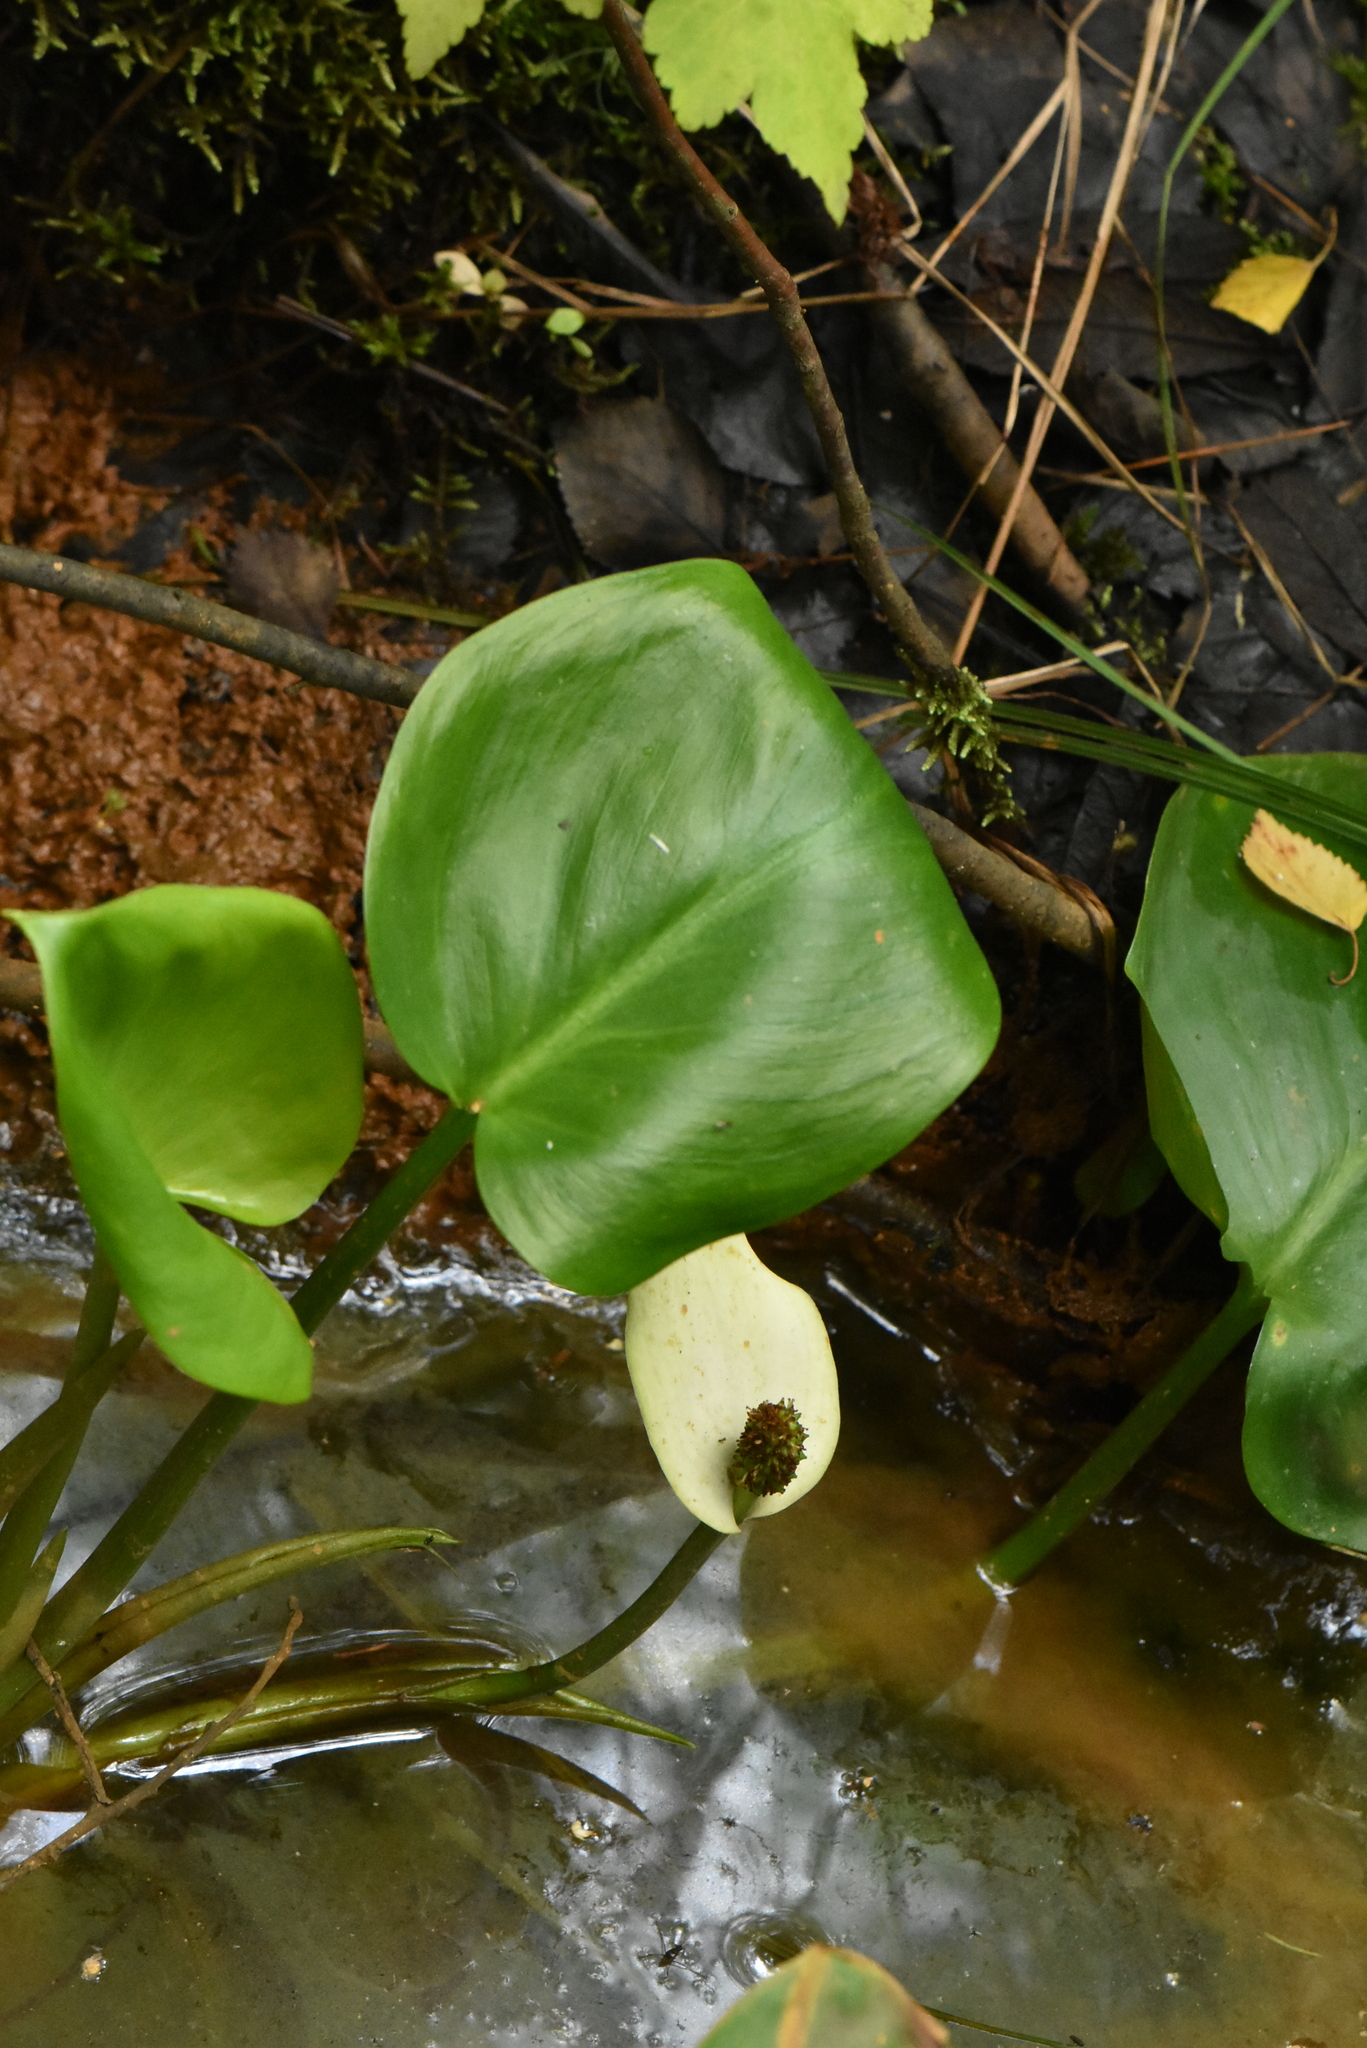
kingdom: Plantae
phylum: Tracheophyta
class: Liliopsida
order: Alismatales
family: Araceae
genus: Calla
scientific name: Calla palustris
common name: Bog arum
